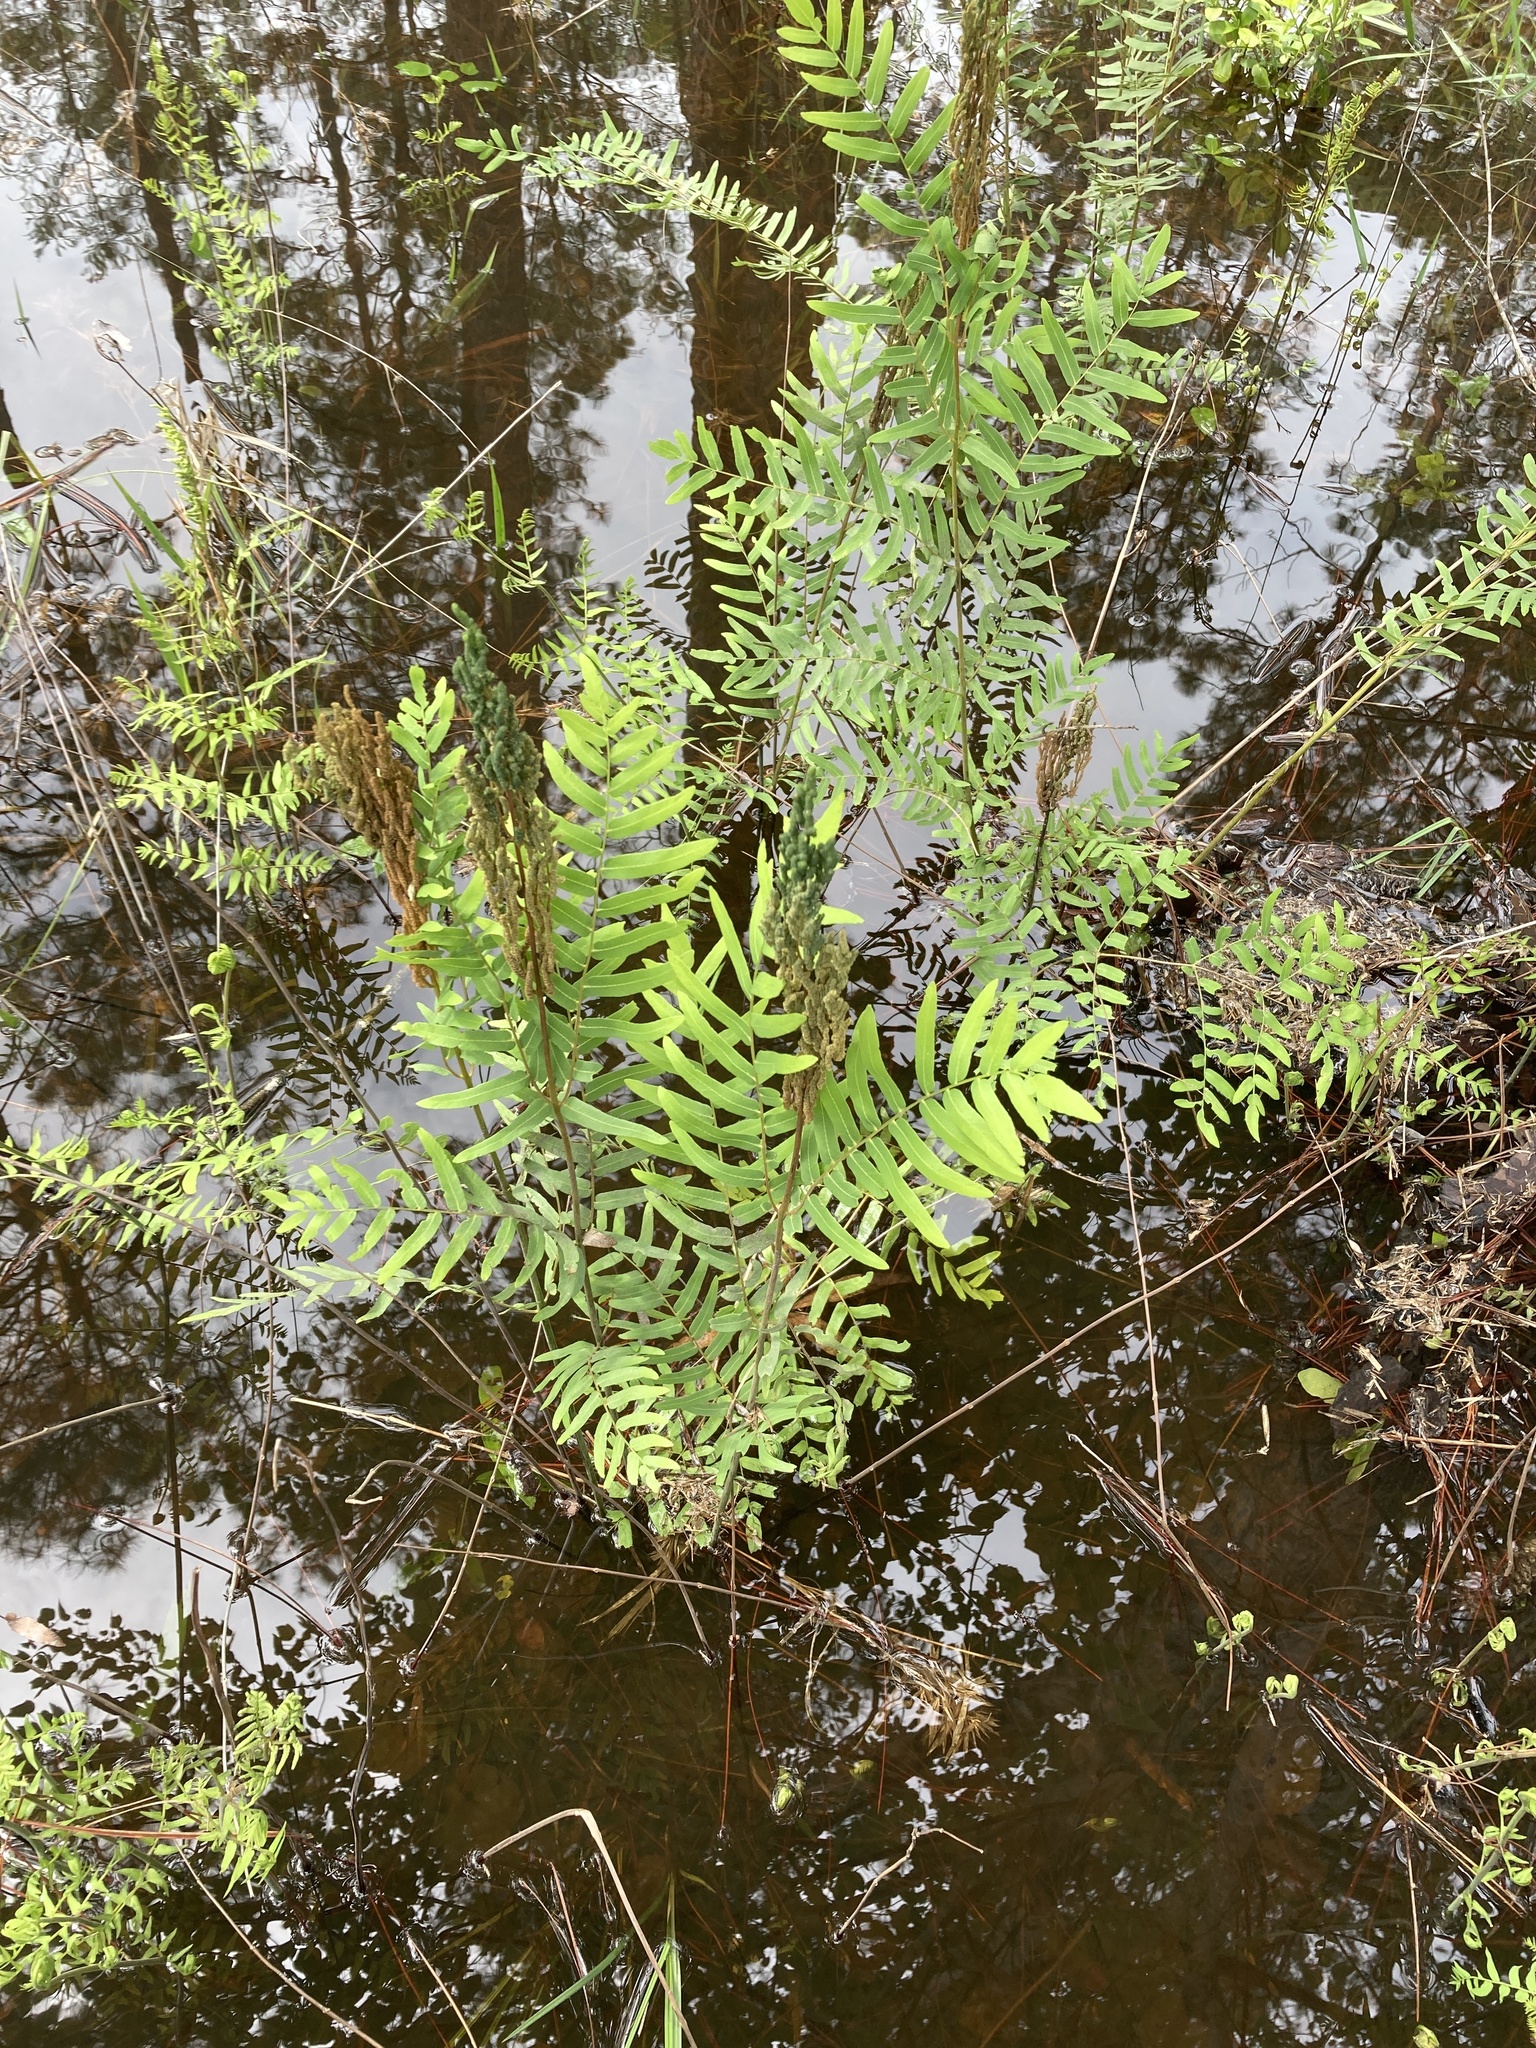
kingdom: Plantae
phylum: Tracheophyta
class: Polypodiopsida
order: Osmundales
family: Osmundaceae
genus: Osmunda
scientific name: Osmunda spectabilis
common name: American royal fern
